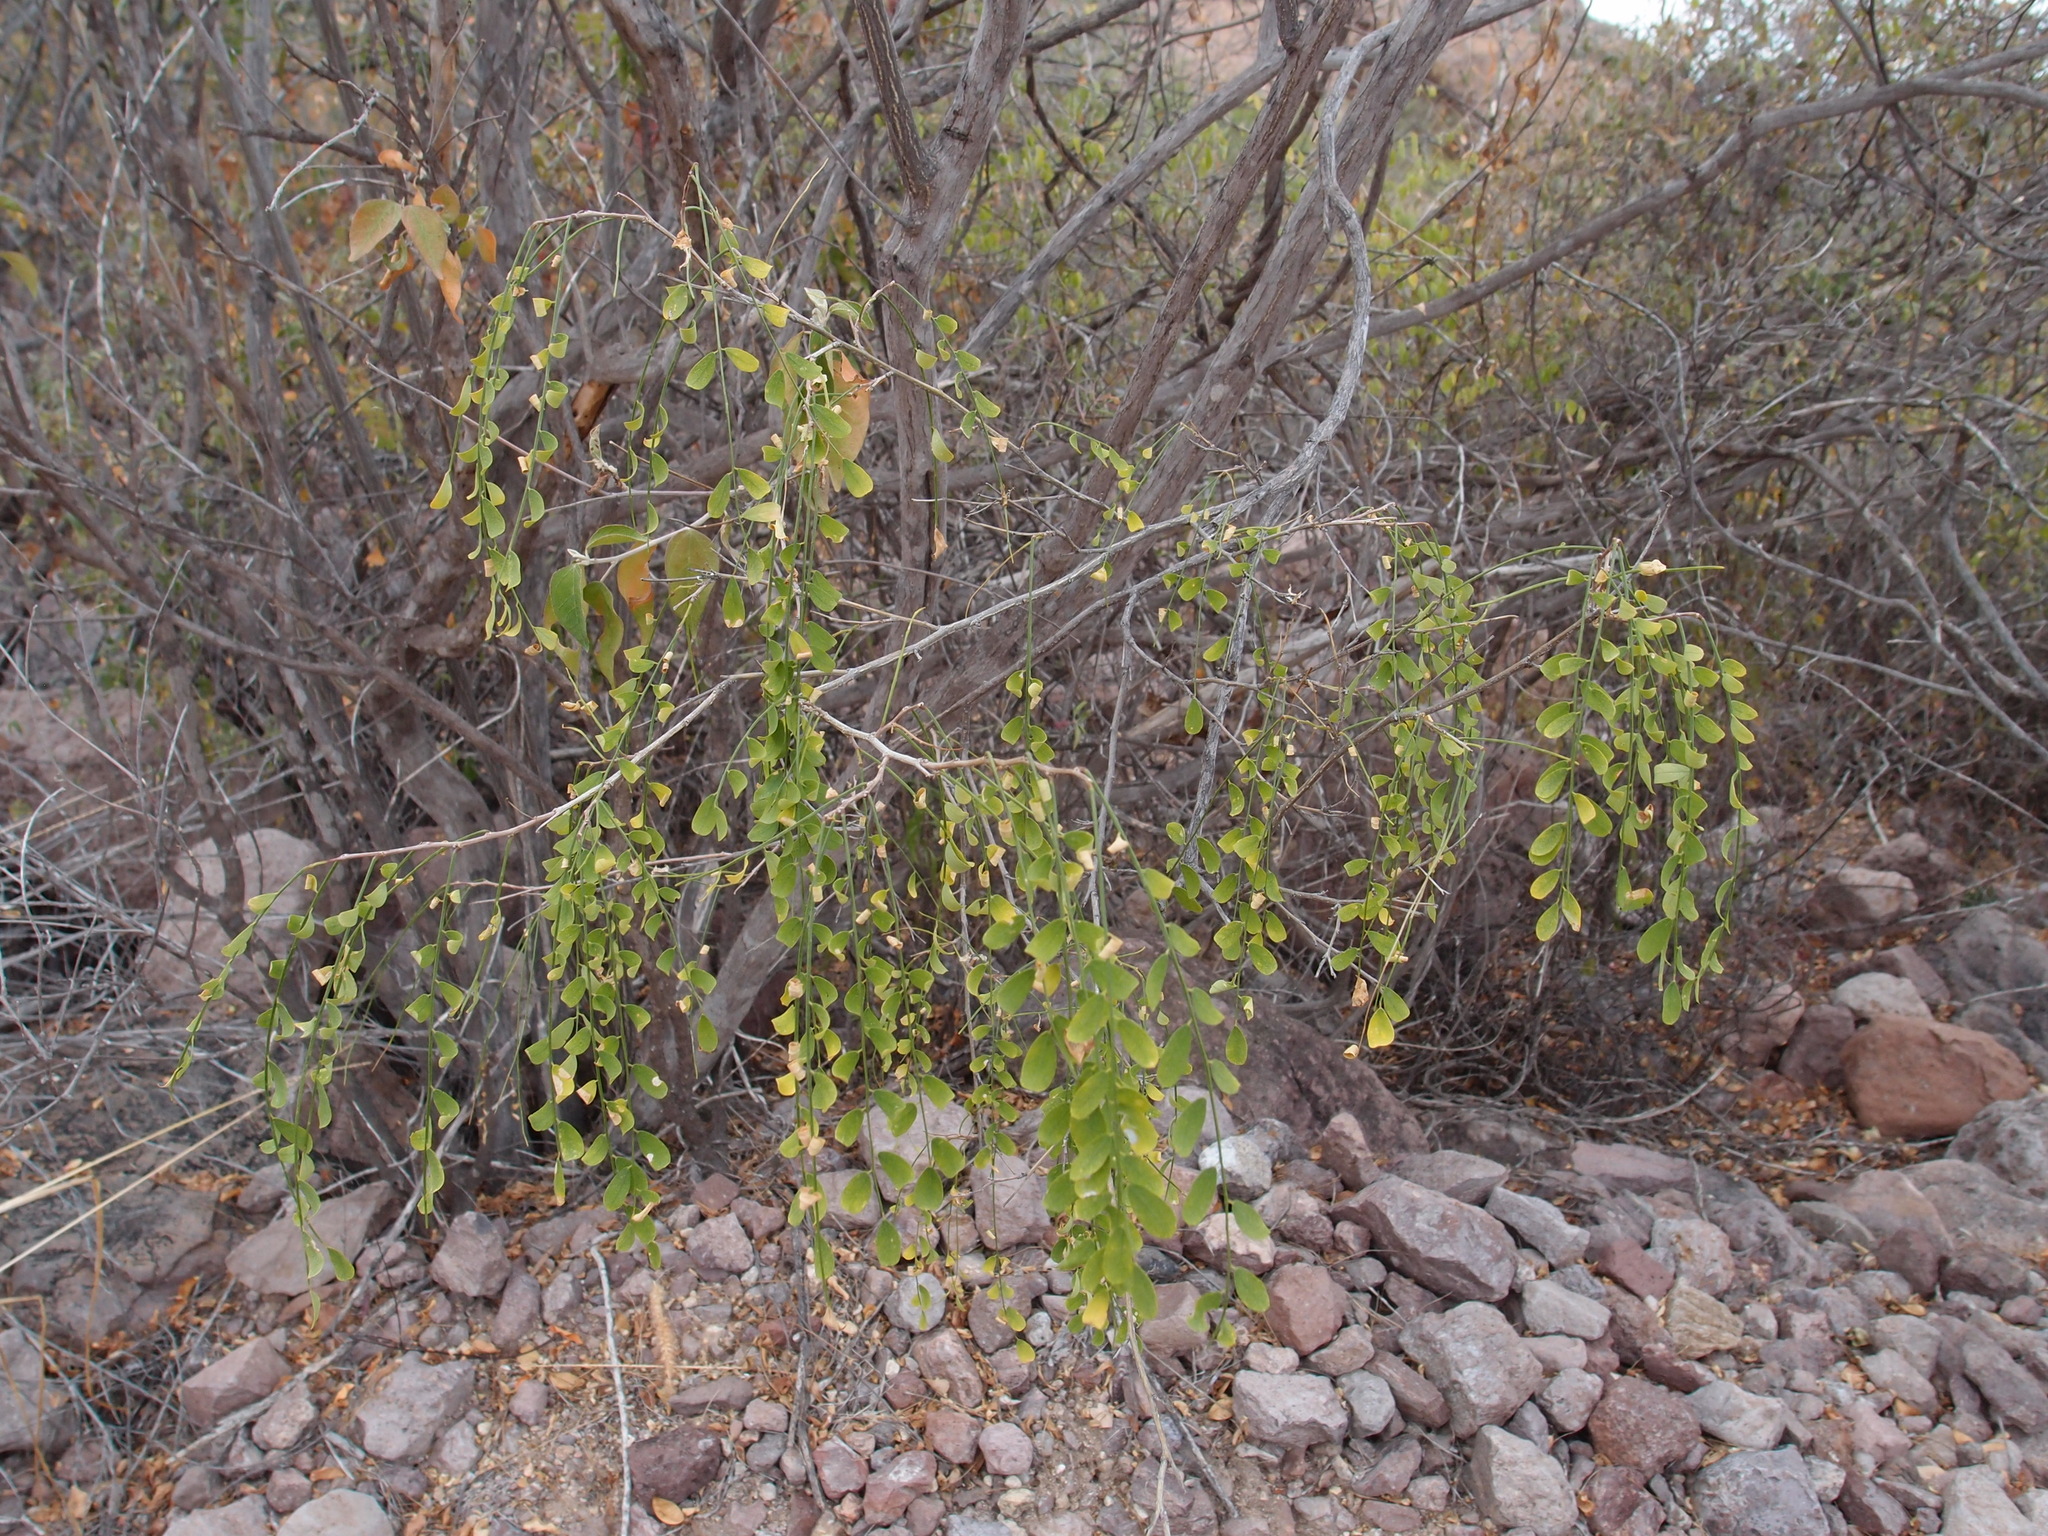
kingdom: Plantae
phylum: Tracheophyta
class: Magnoliopsida
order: Fabales
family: Fabaceae
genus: Diphysa
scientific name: Diphysa occidentalis
